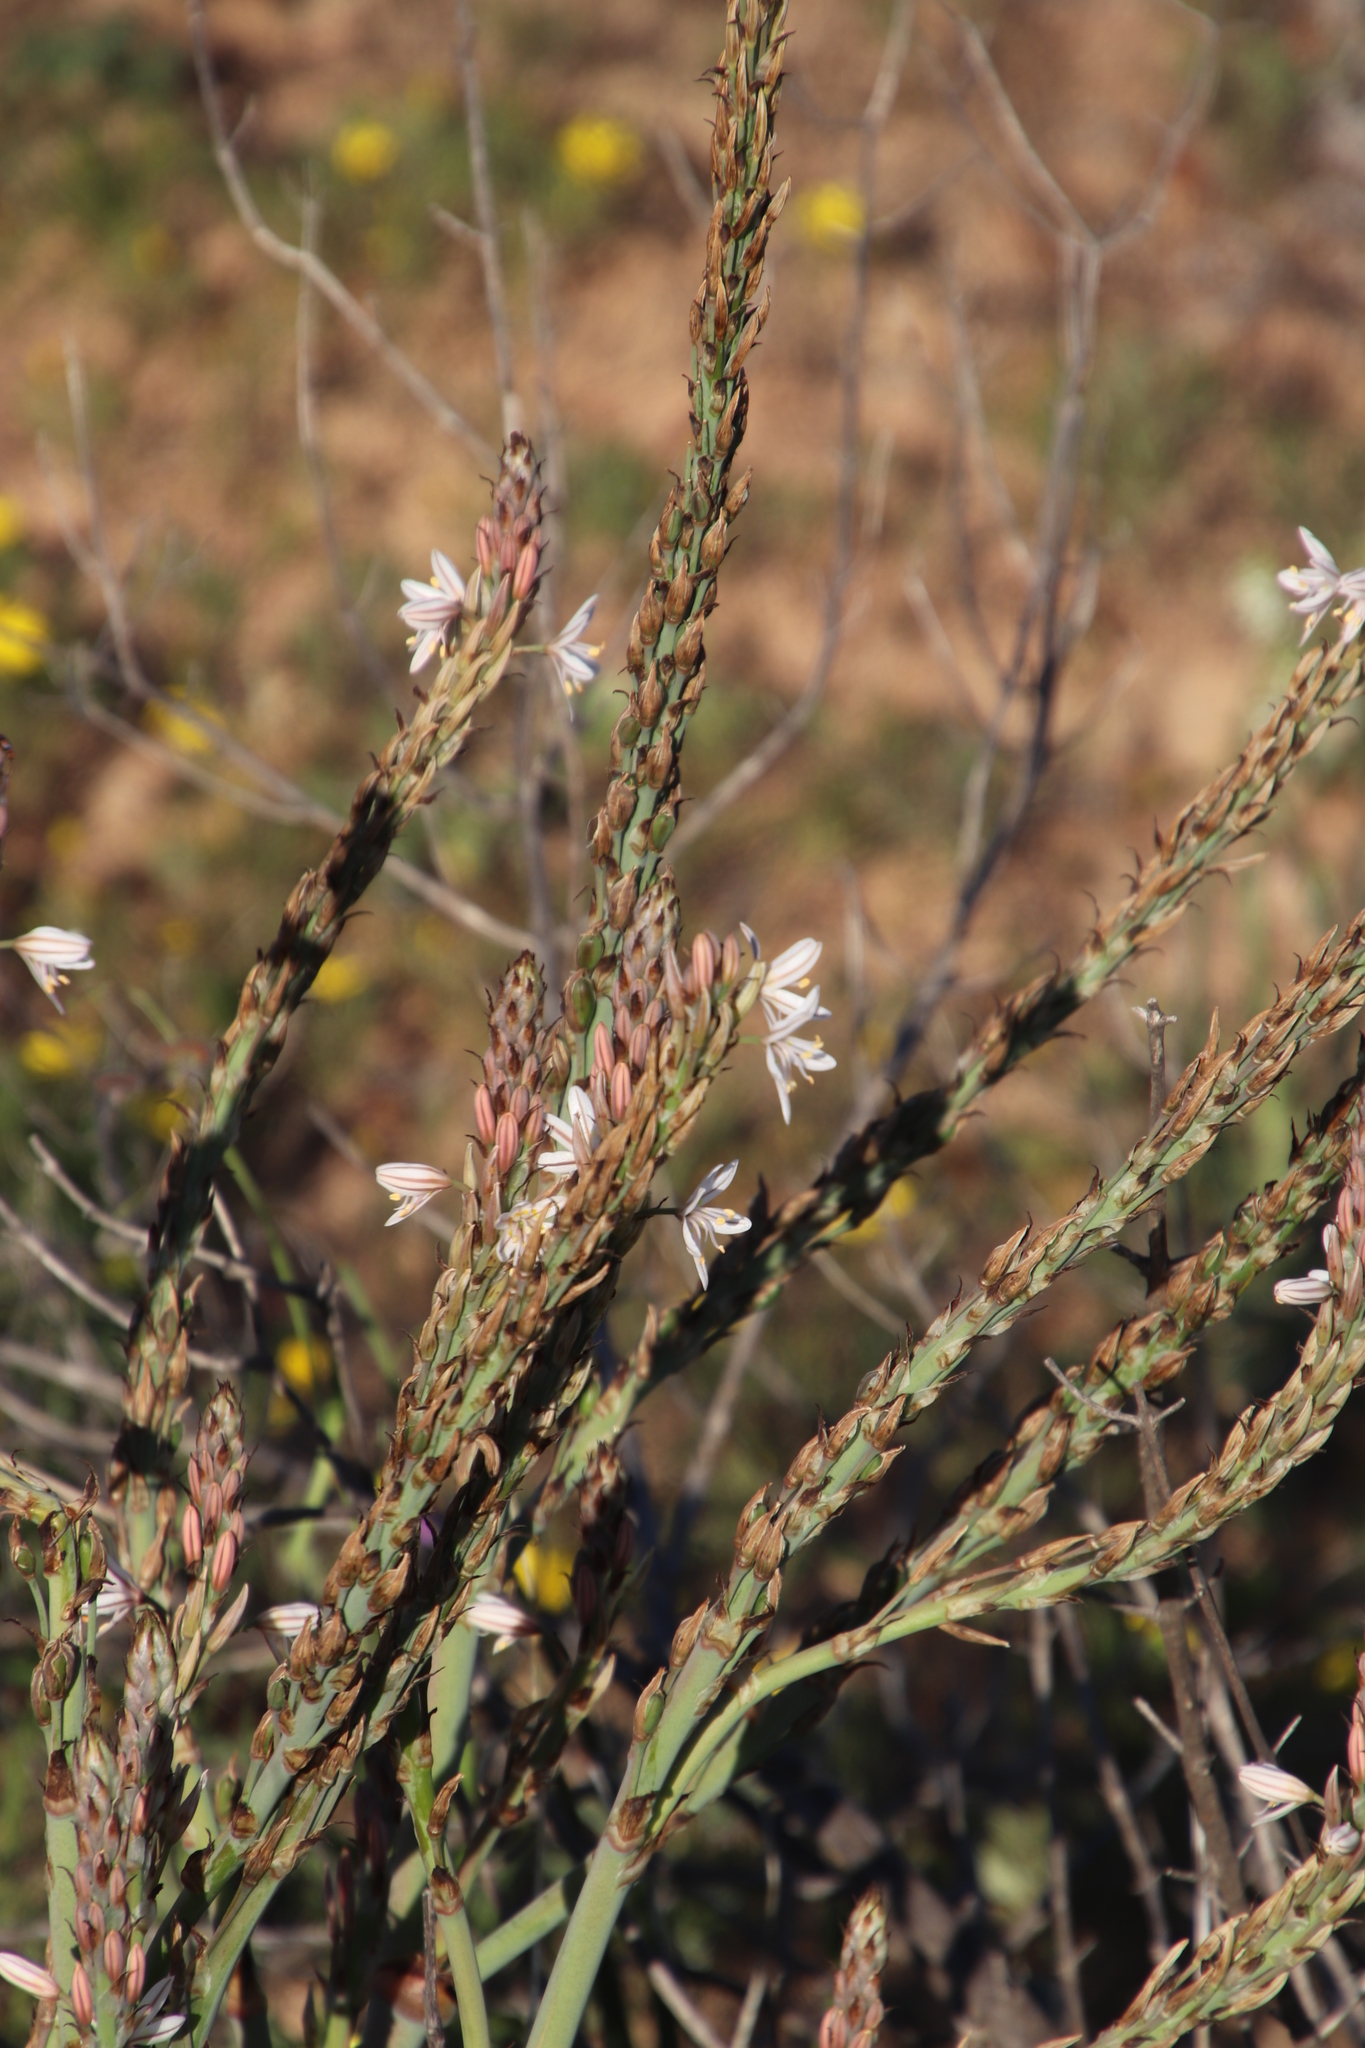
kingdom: Plantae
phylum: Tracheophyta
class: Liliopsida
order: Asparagales
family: Asphodelaceae
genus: Trachyandra
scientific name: Trachyandra falcata
